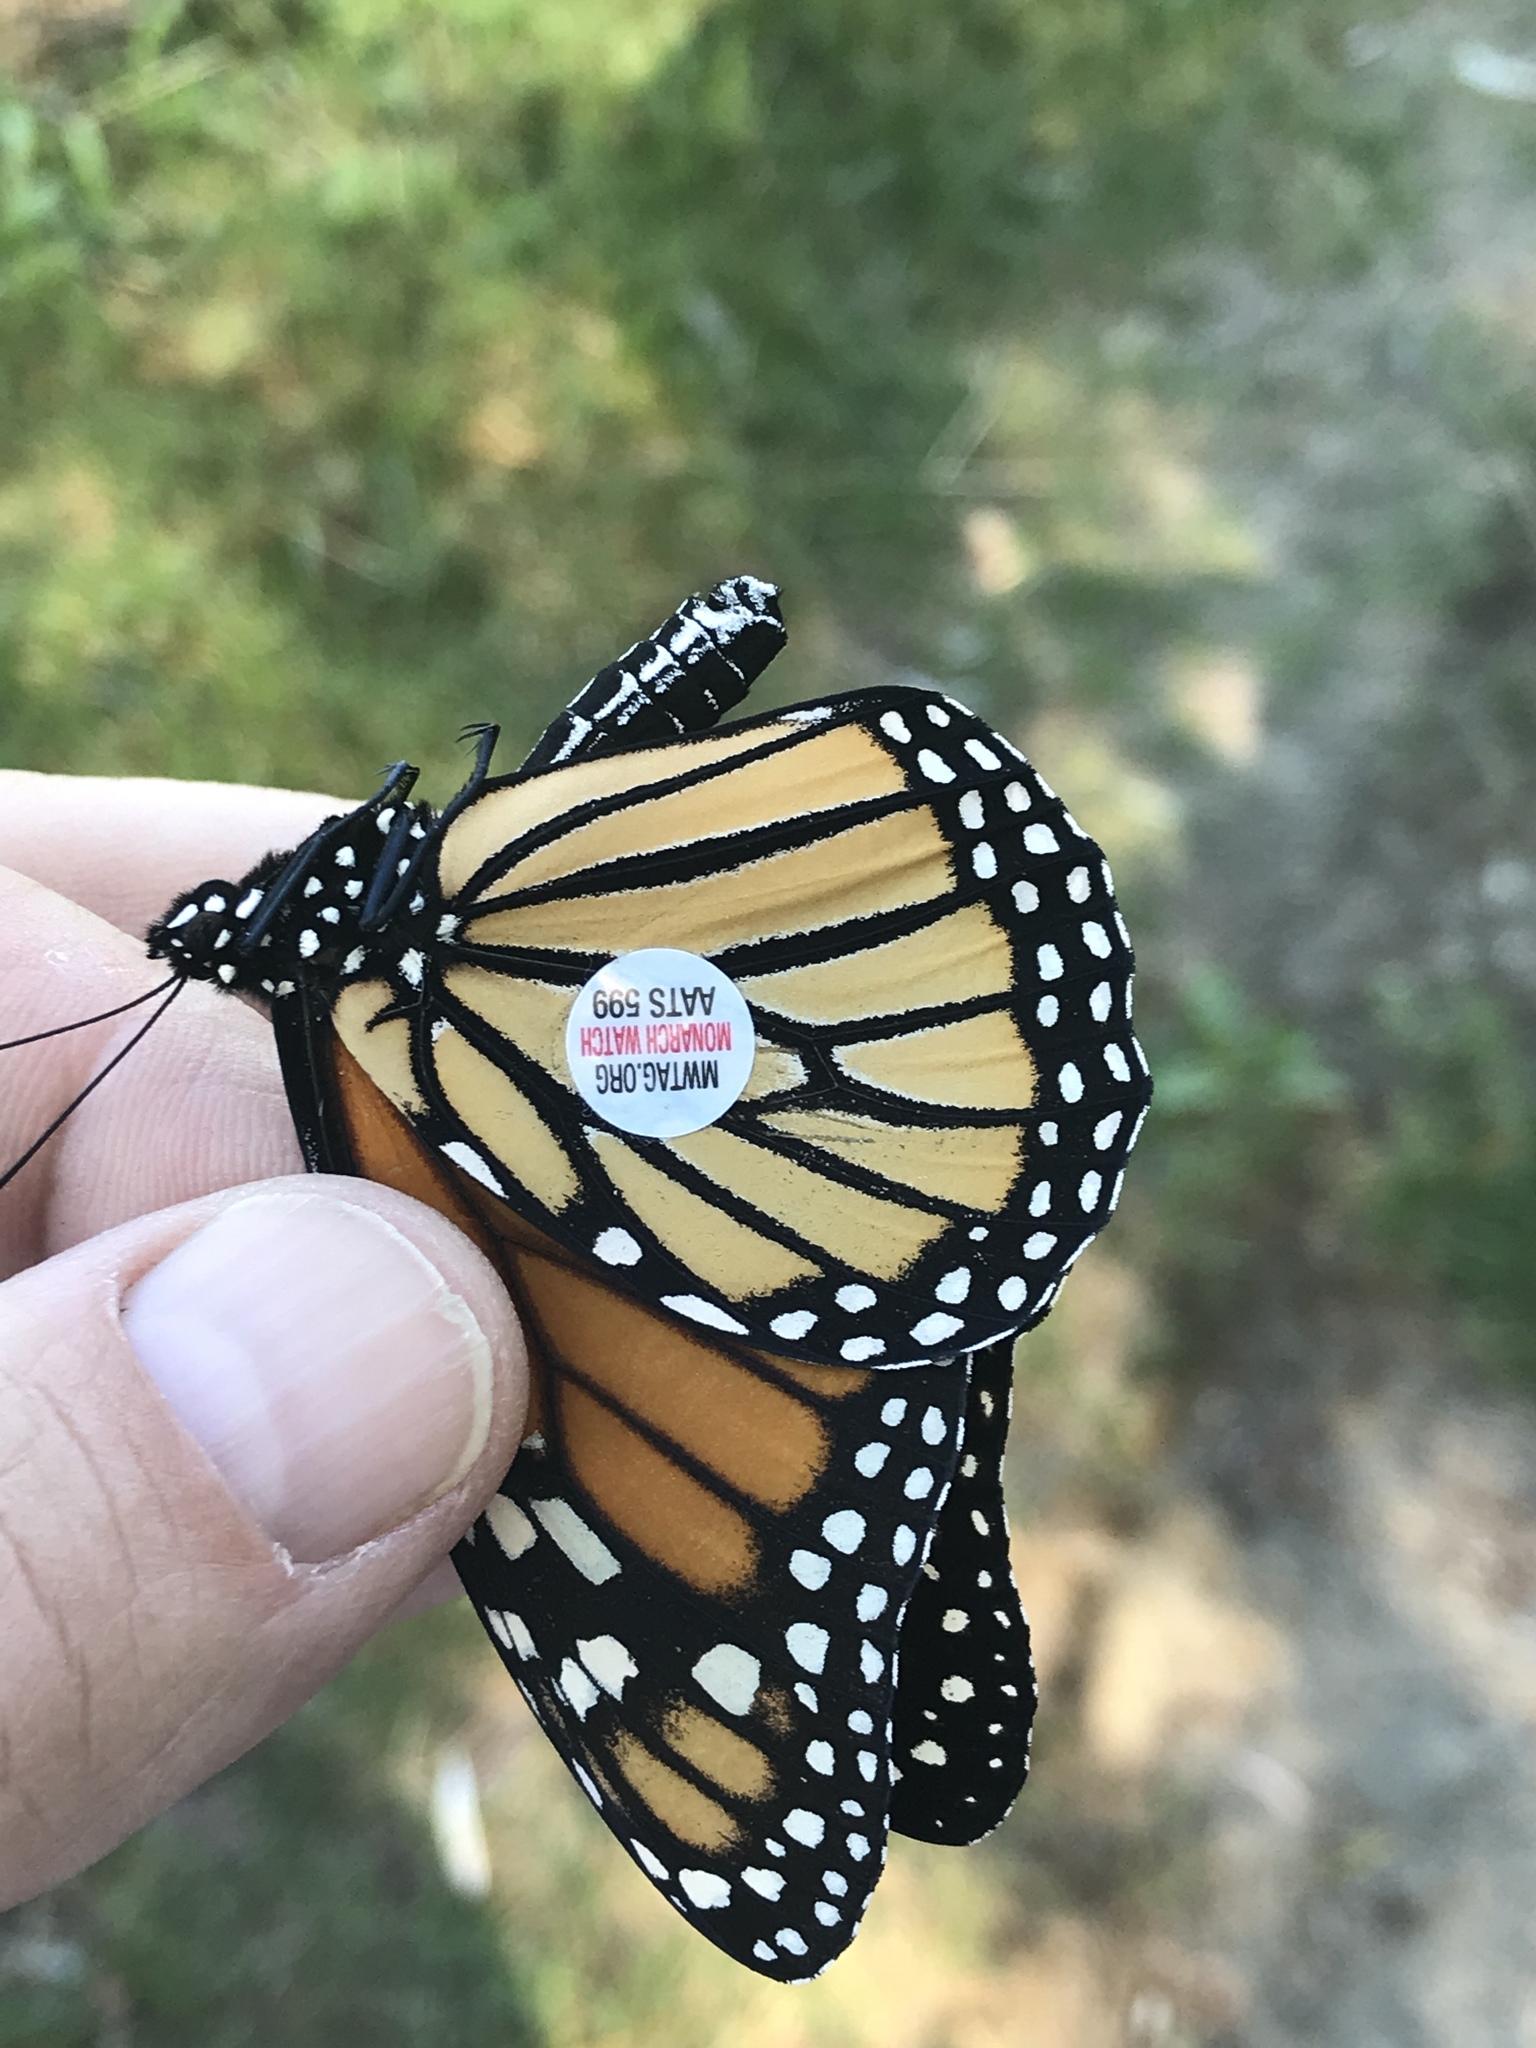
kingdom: Animalia
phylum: Arthropoda
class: Insecta
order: Lepidoptera
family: Nymphalidae
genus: Danaus
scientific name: Danaus plexippus
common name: Monarch
